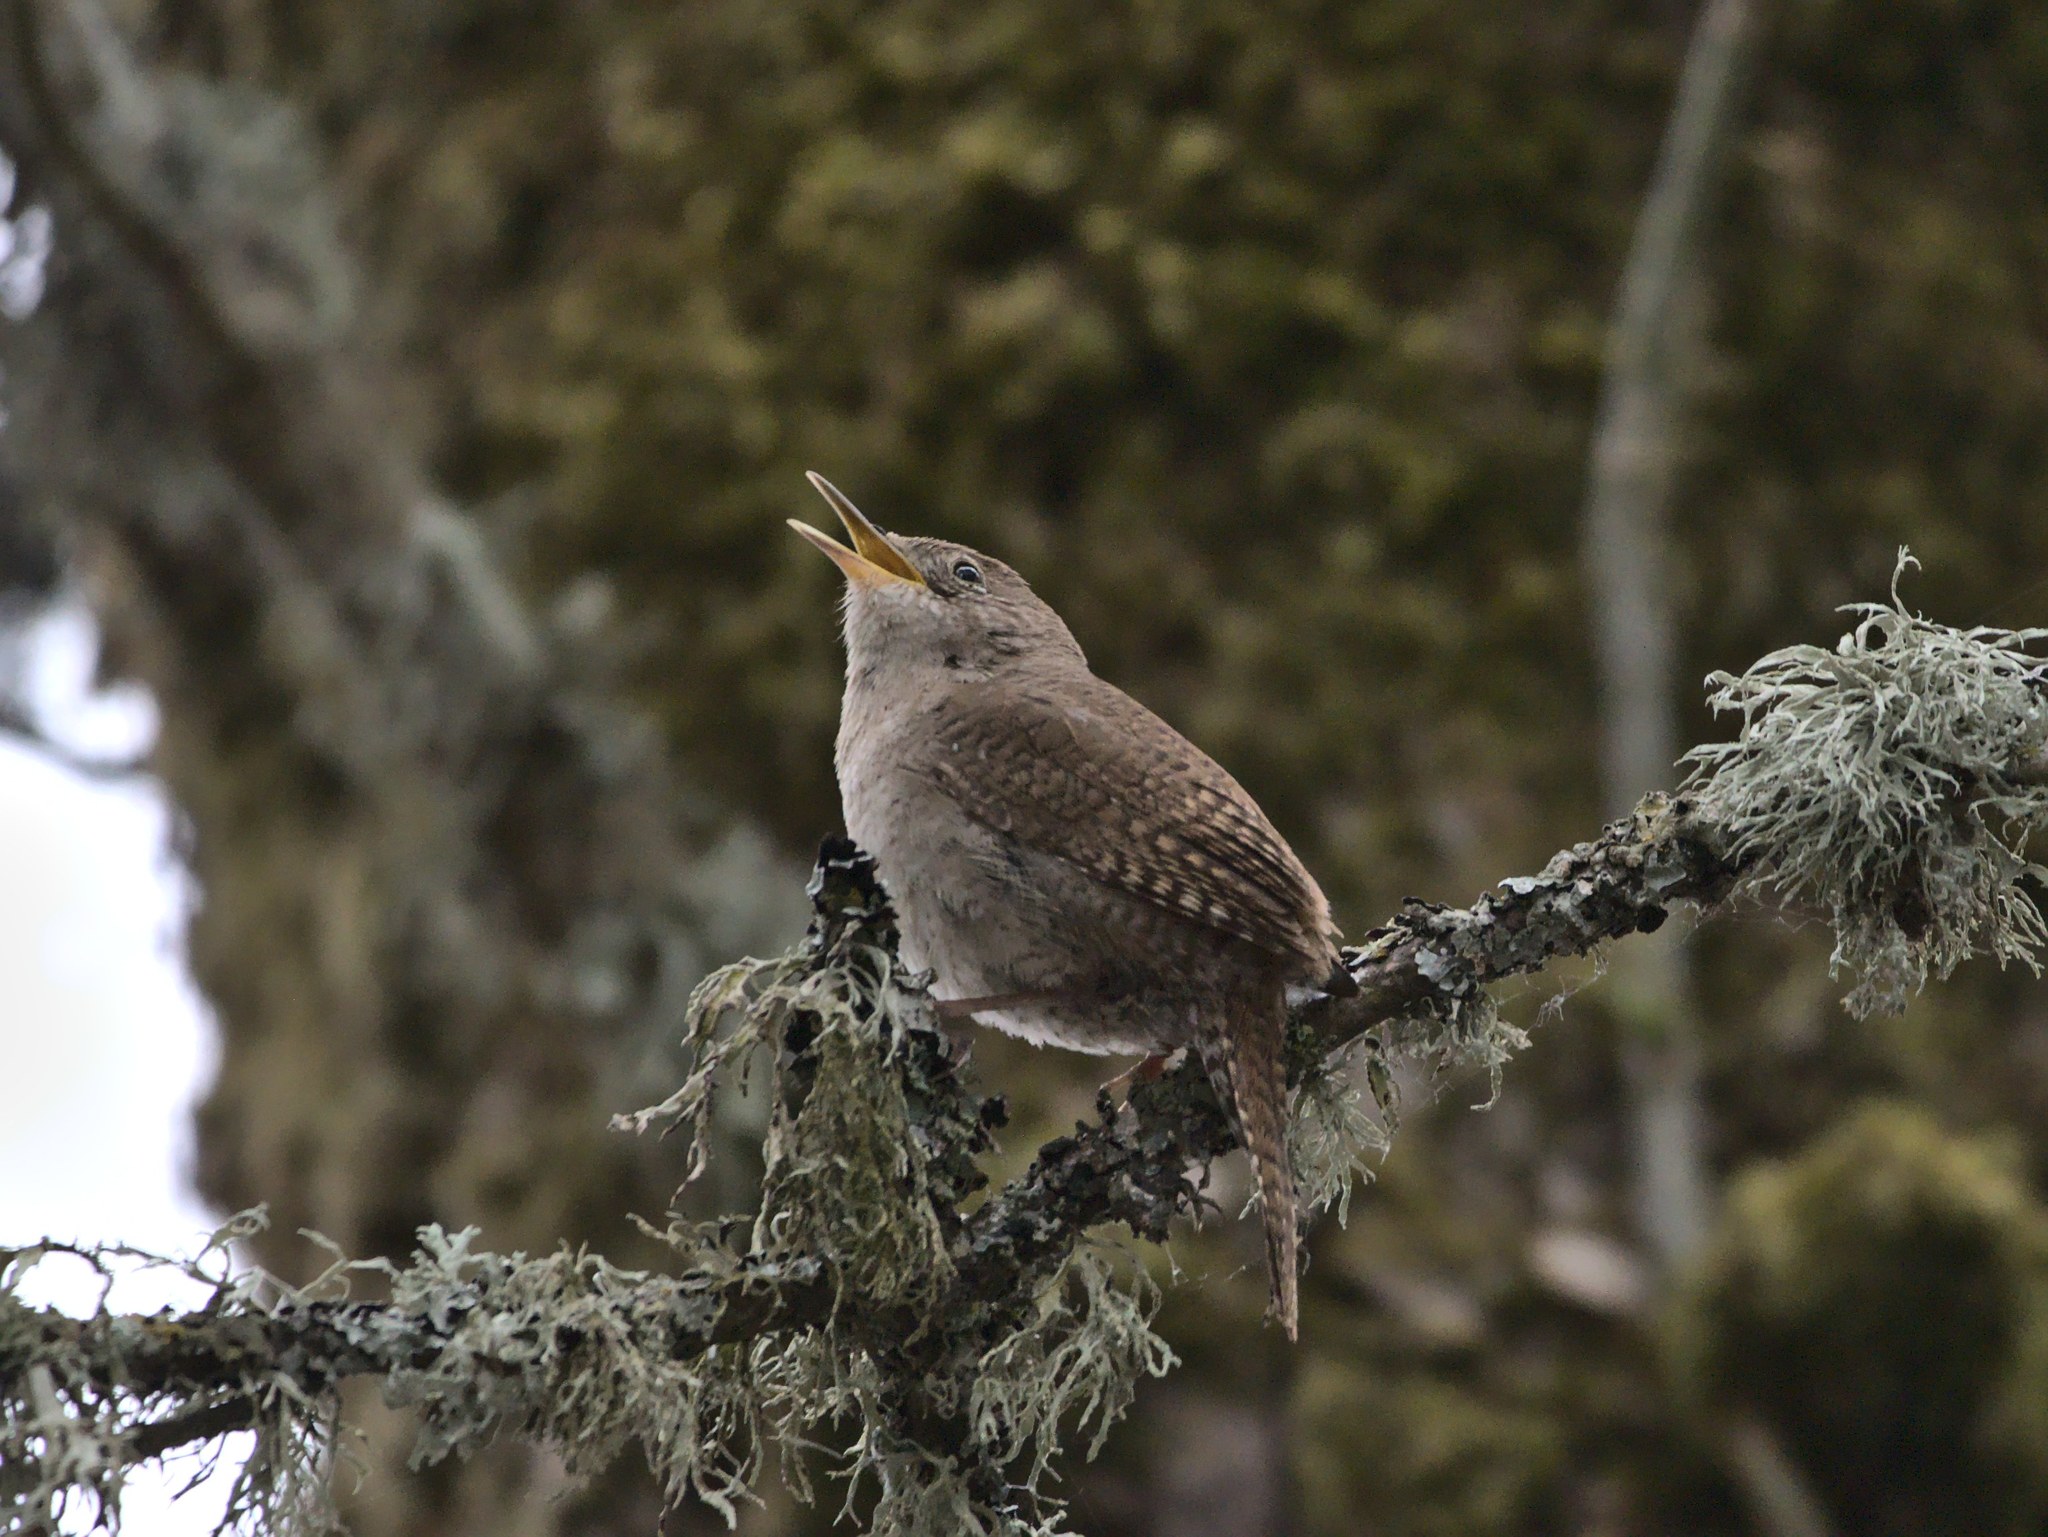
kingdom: Animalia
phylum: Chordata
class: Aves
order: Passeriformes
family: Troglodytidae
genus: Troglodytes
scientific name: Troglodytes aedon
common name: House wren
